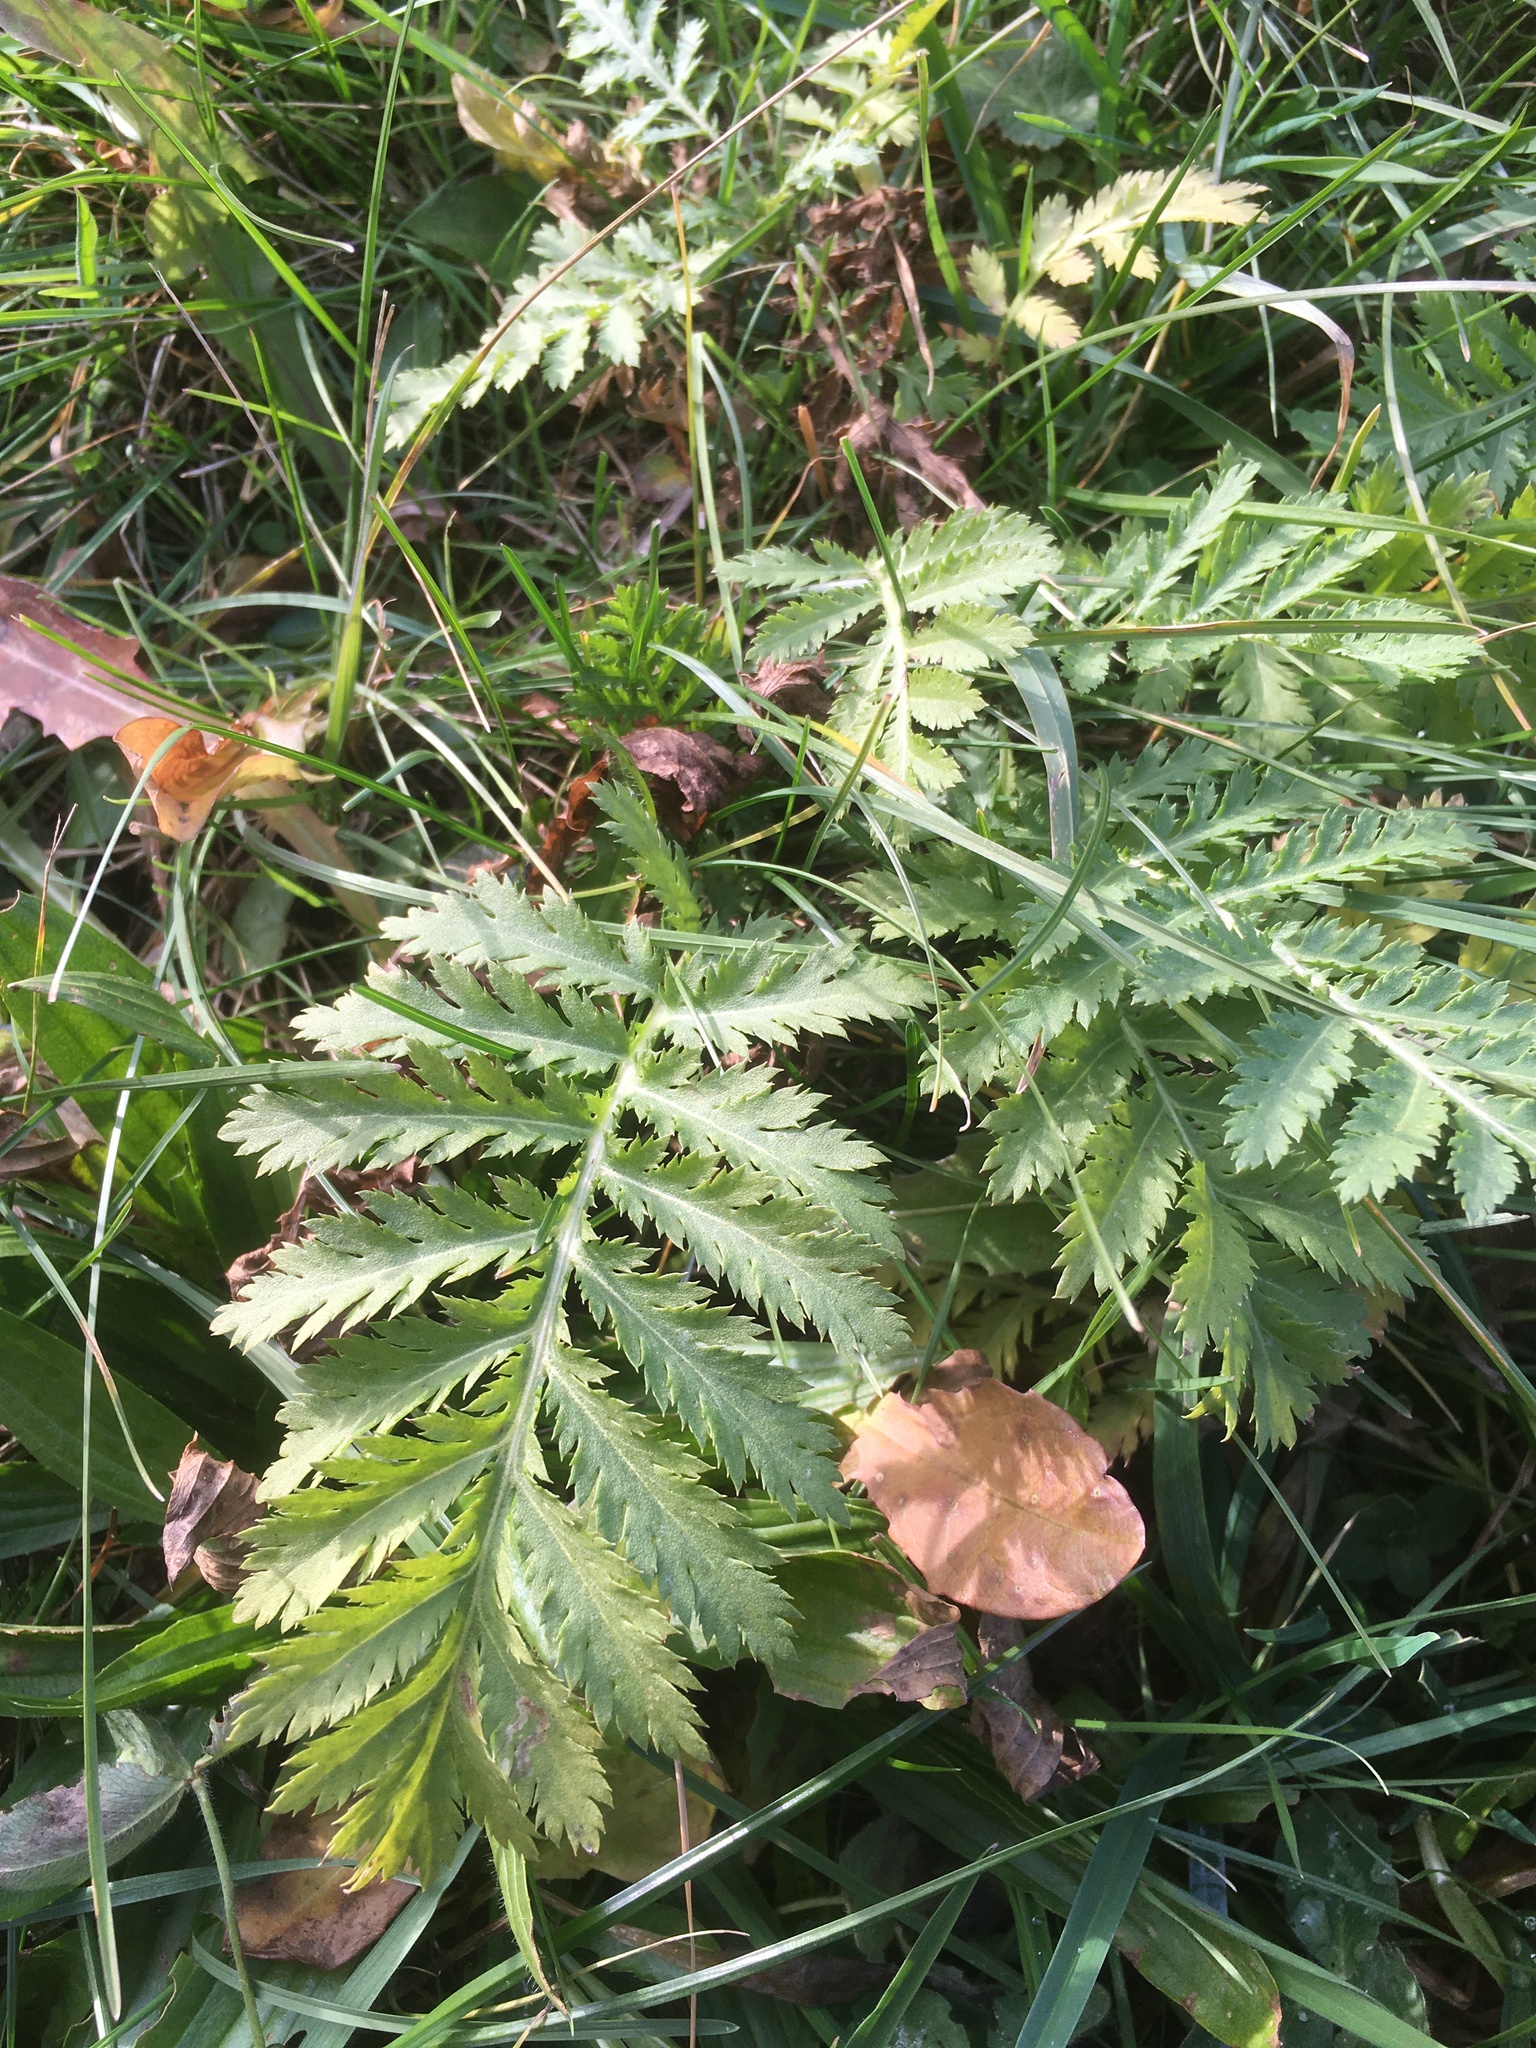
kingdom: Plantae
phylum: Tracheophyta
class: Magnoliopsida
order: Asterales
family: Asteraceae
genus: Tanacetum
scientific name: Tanacetum vulgare
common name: Common tansy
